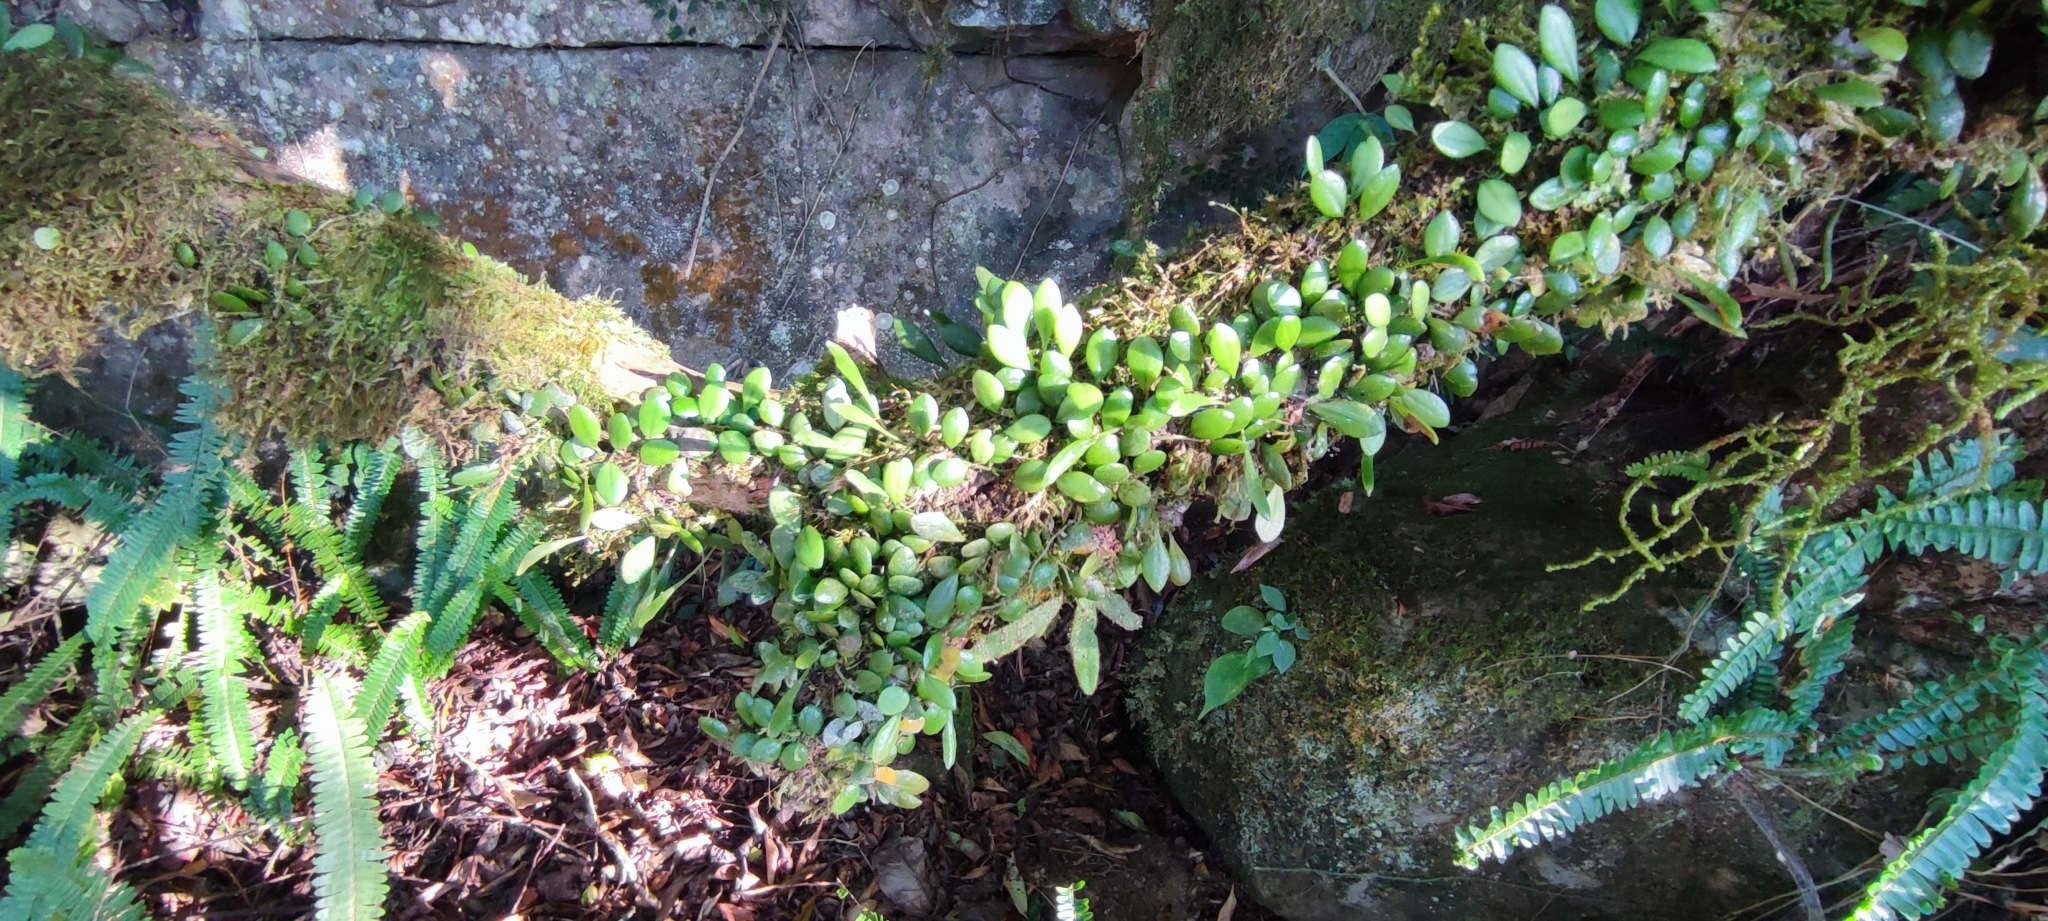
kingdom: Plantae
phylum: Tracheophyta
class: Polypodiopsida
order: Polypodiales
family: Polypodiaceae
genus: Lepisorus
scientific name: Lepisorus microphyllus
